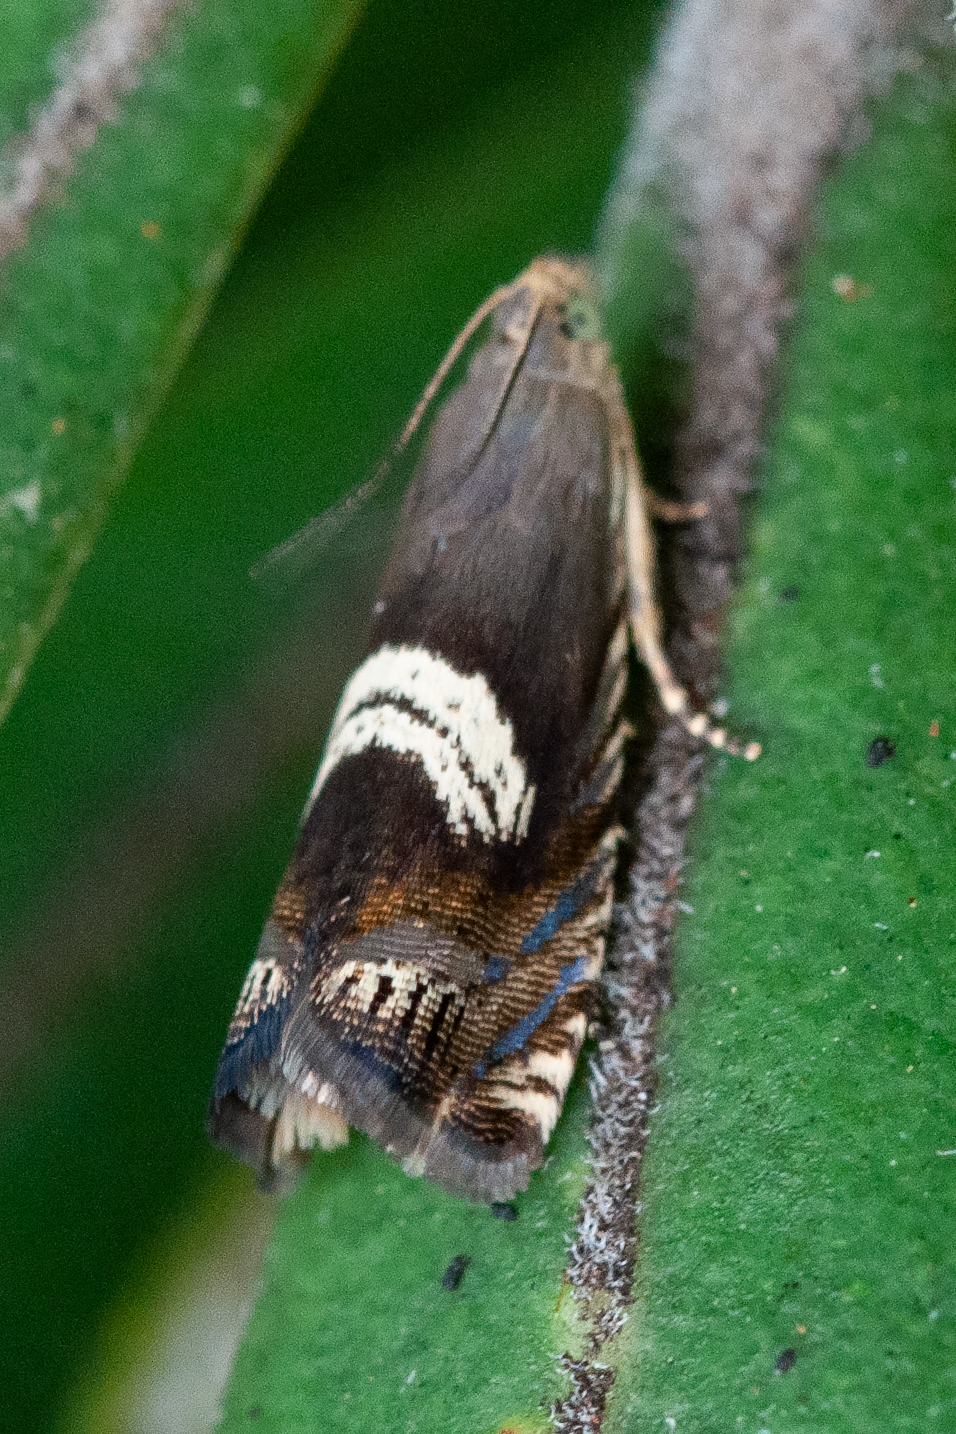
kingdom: Animalia
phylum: Arthropoda
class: Insecta
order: Lepidoptera
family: Tortricidae
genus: Grapholita
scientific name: Grapholita zapyrana
